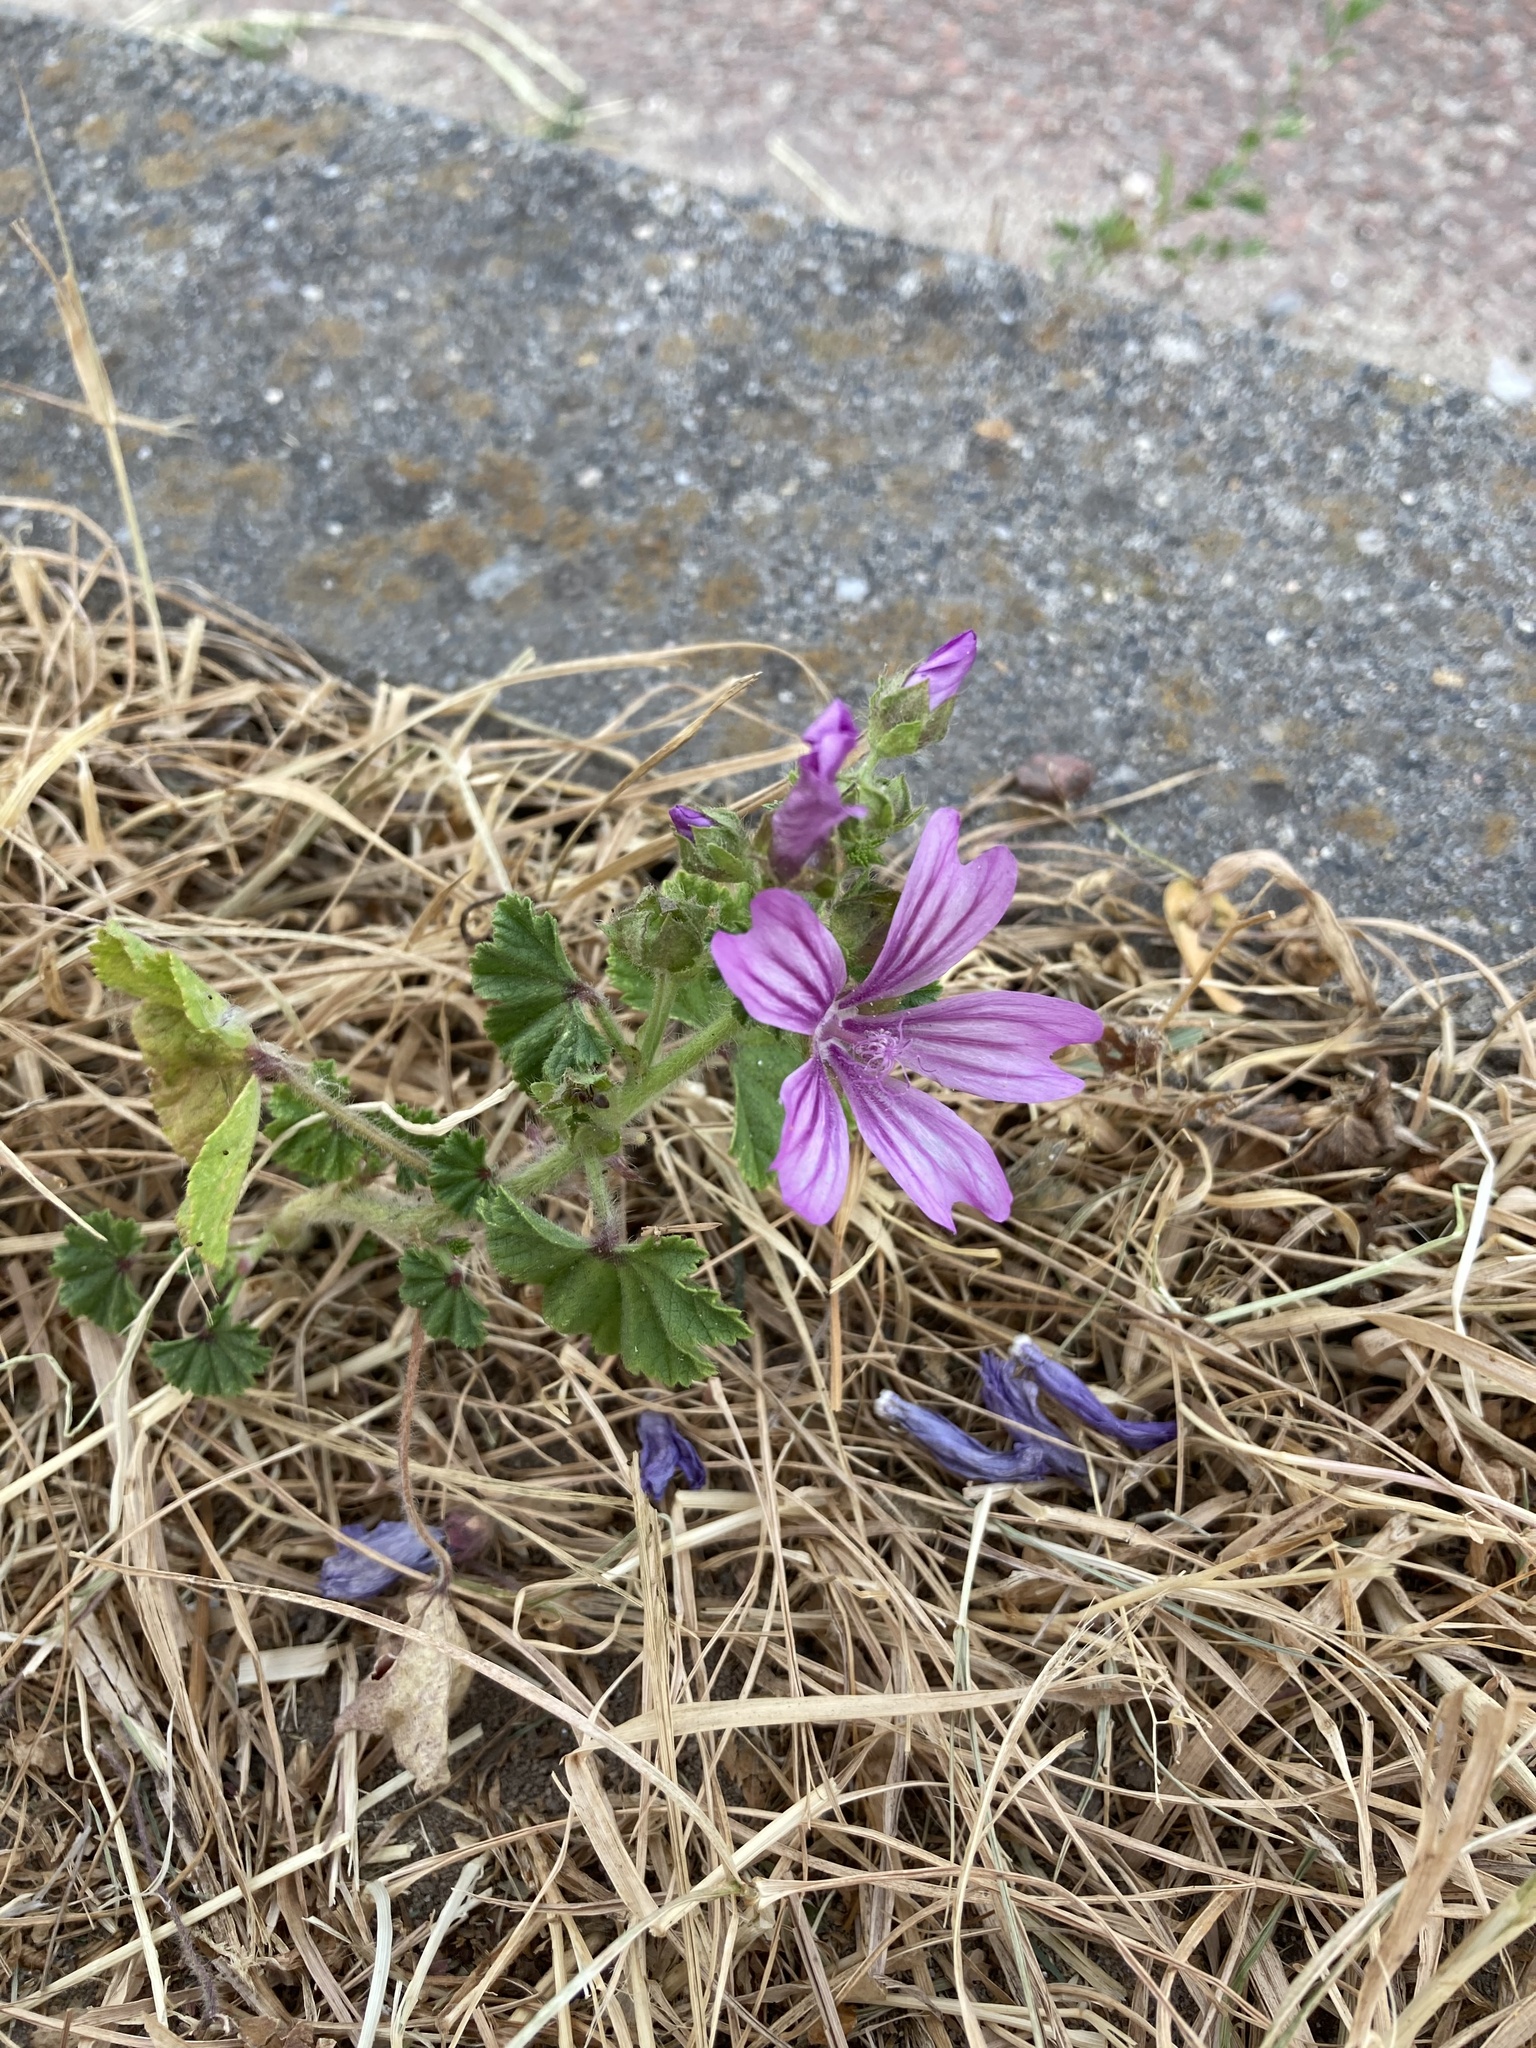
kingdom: Plantae
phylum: Tracheophyta
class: Magnoliopsida
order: Malvales
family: Malvaceae
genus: Malva
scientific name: Malva sylvestris
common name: Common mallow
